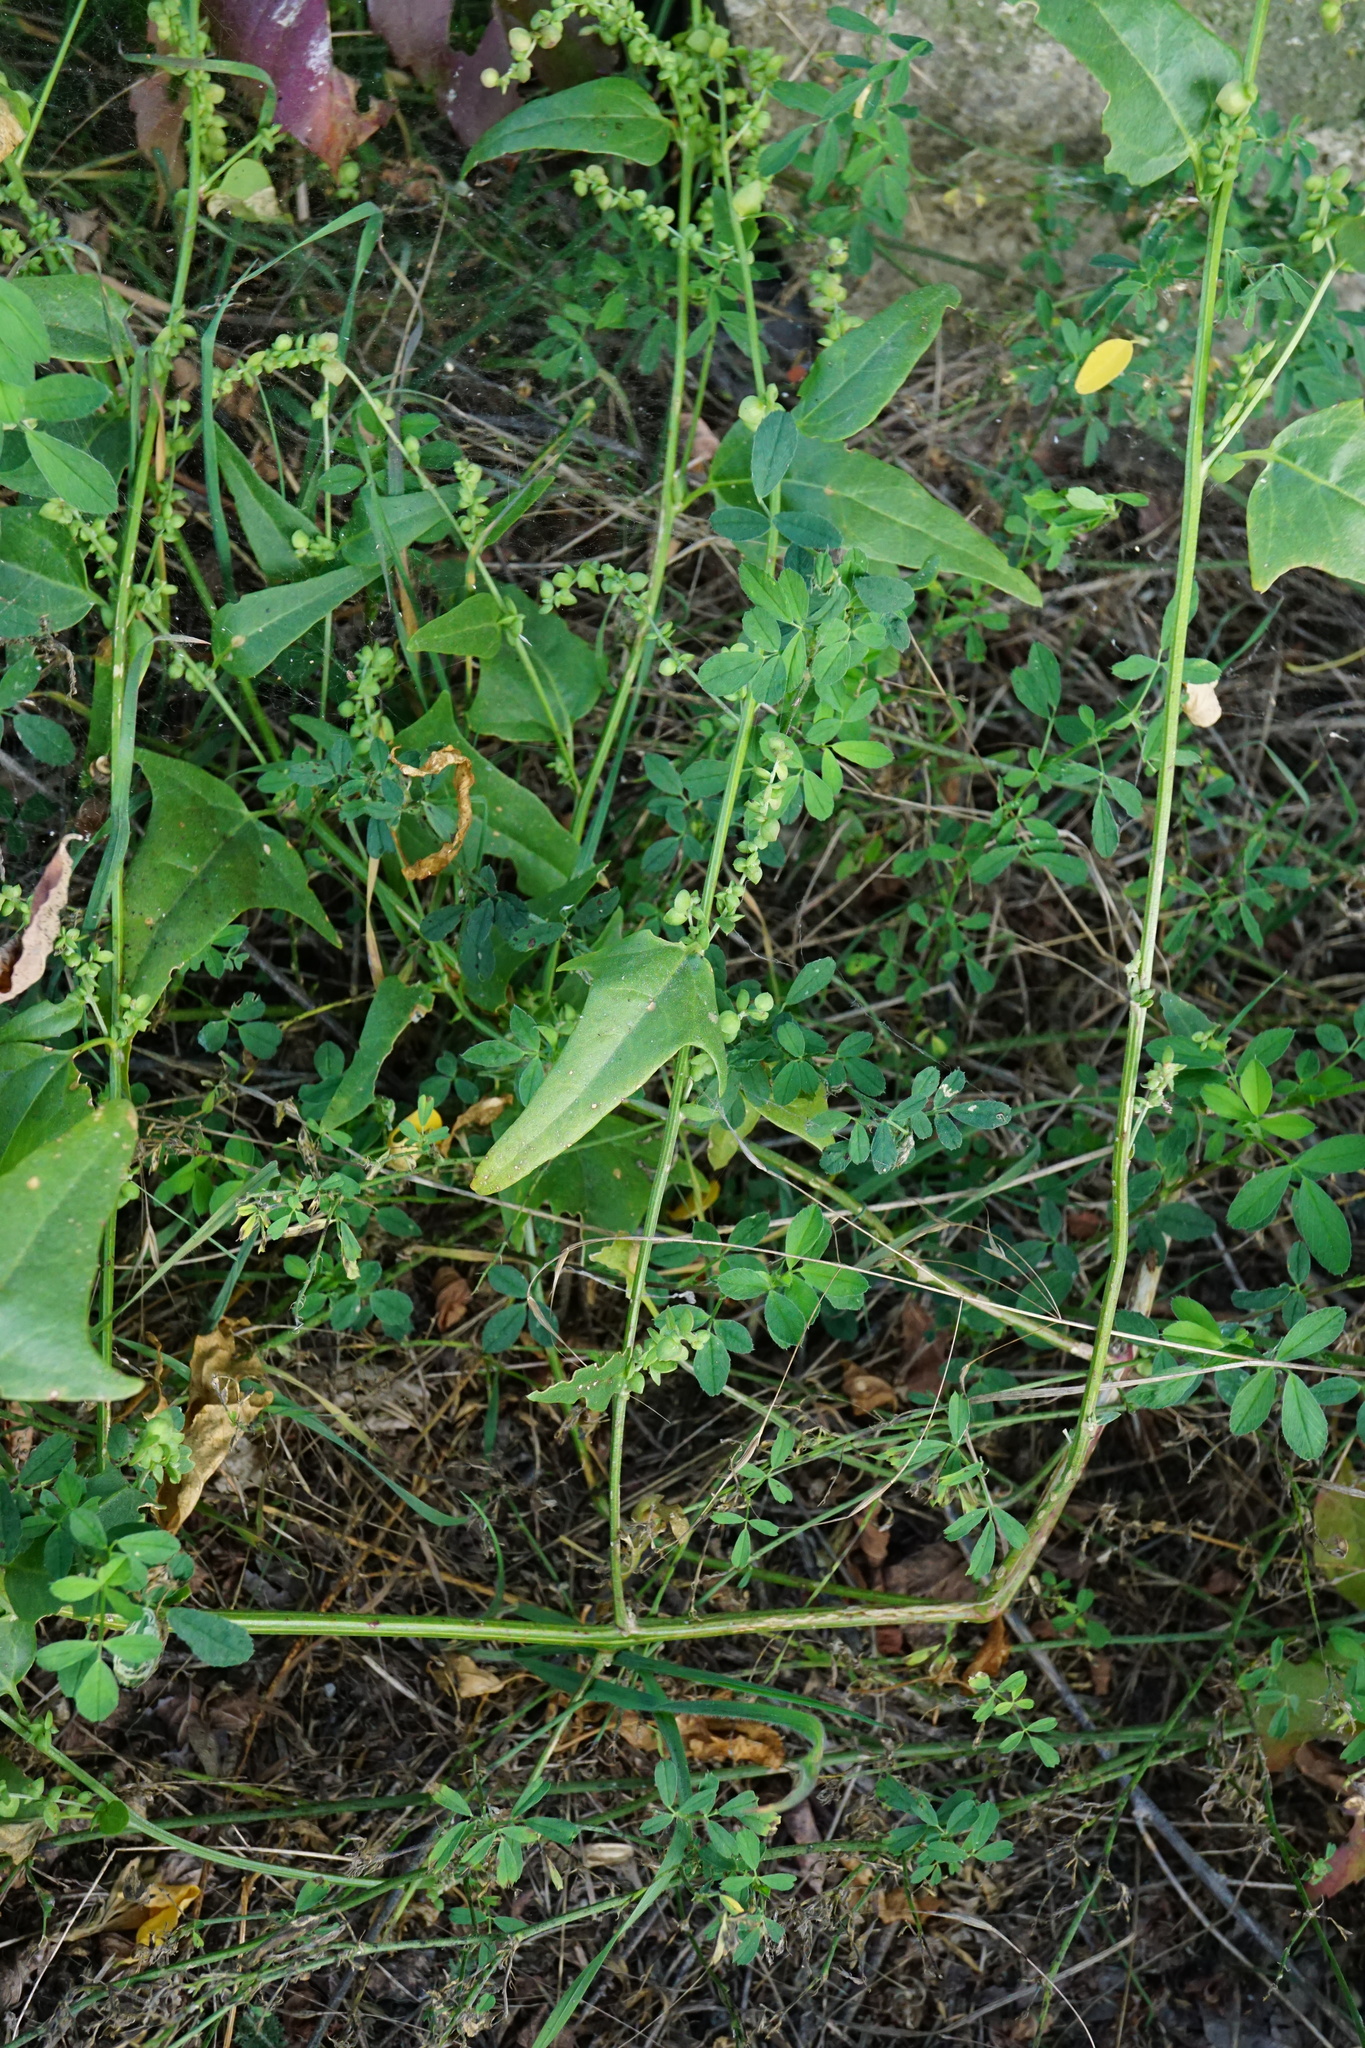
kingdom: Plantae
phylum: Tracheophyta
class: Magnoliopsida
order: Caryophyllales
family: Amaranthaceae
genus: Atriplex
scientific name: Atriplex micrantha
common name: Twoscale saltbush
